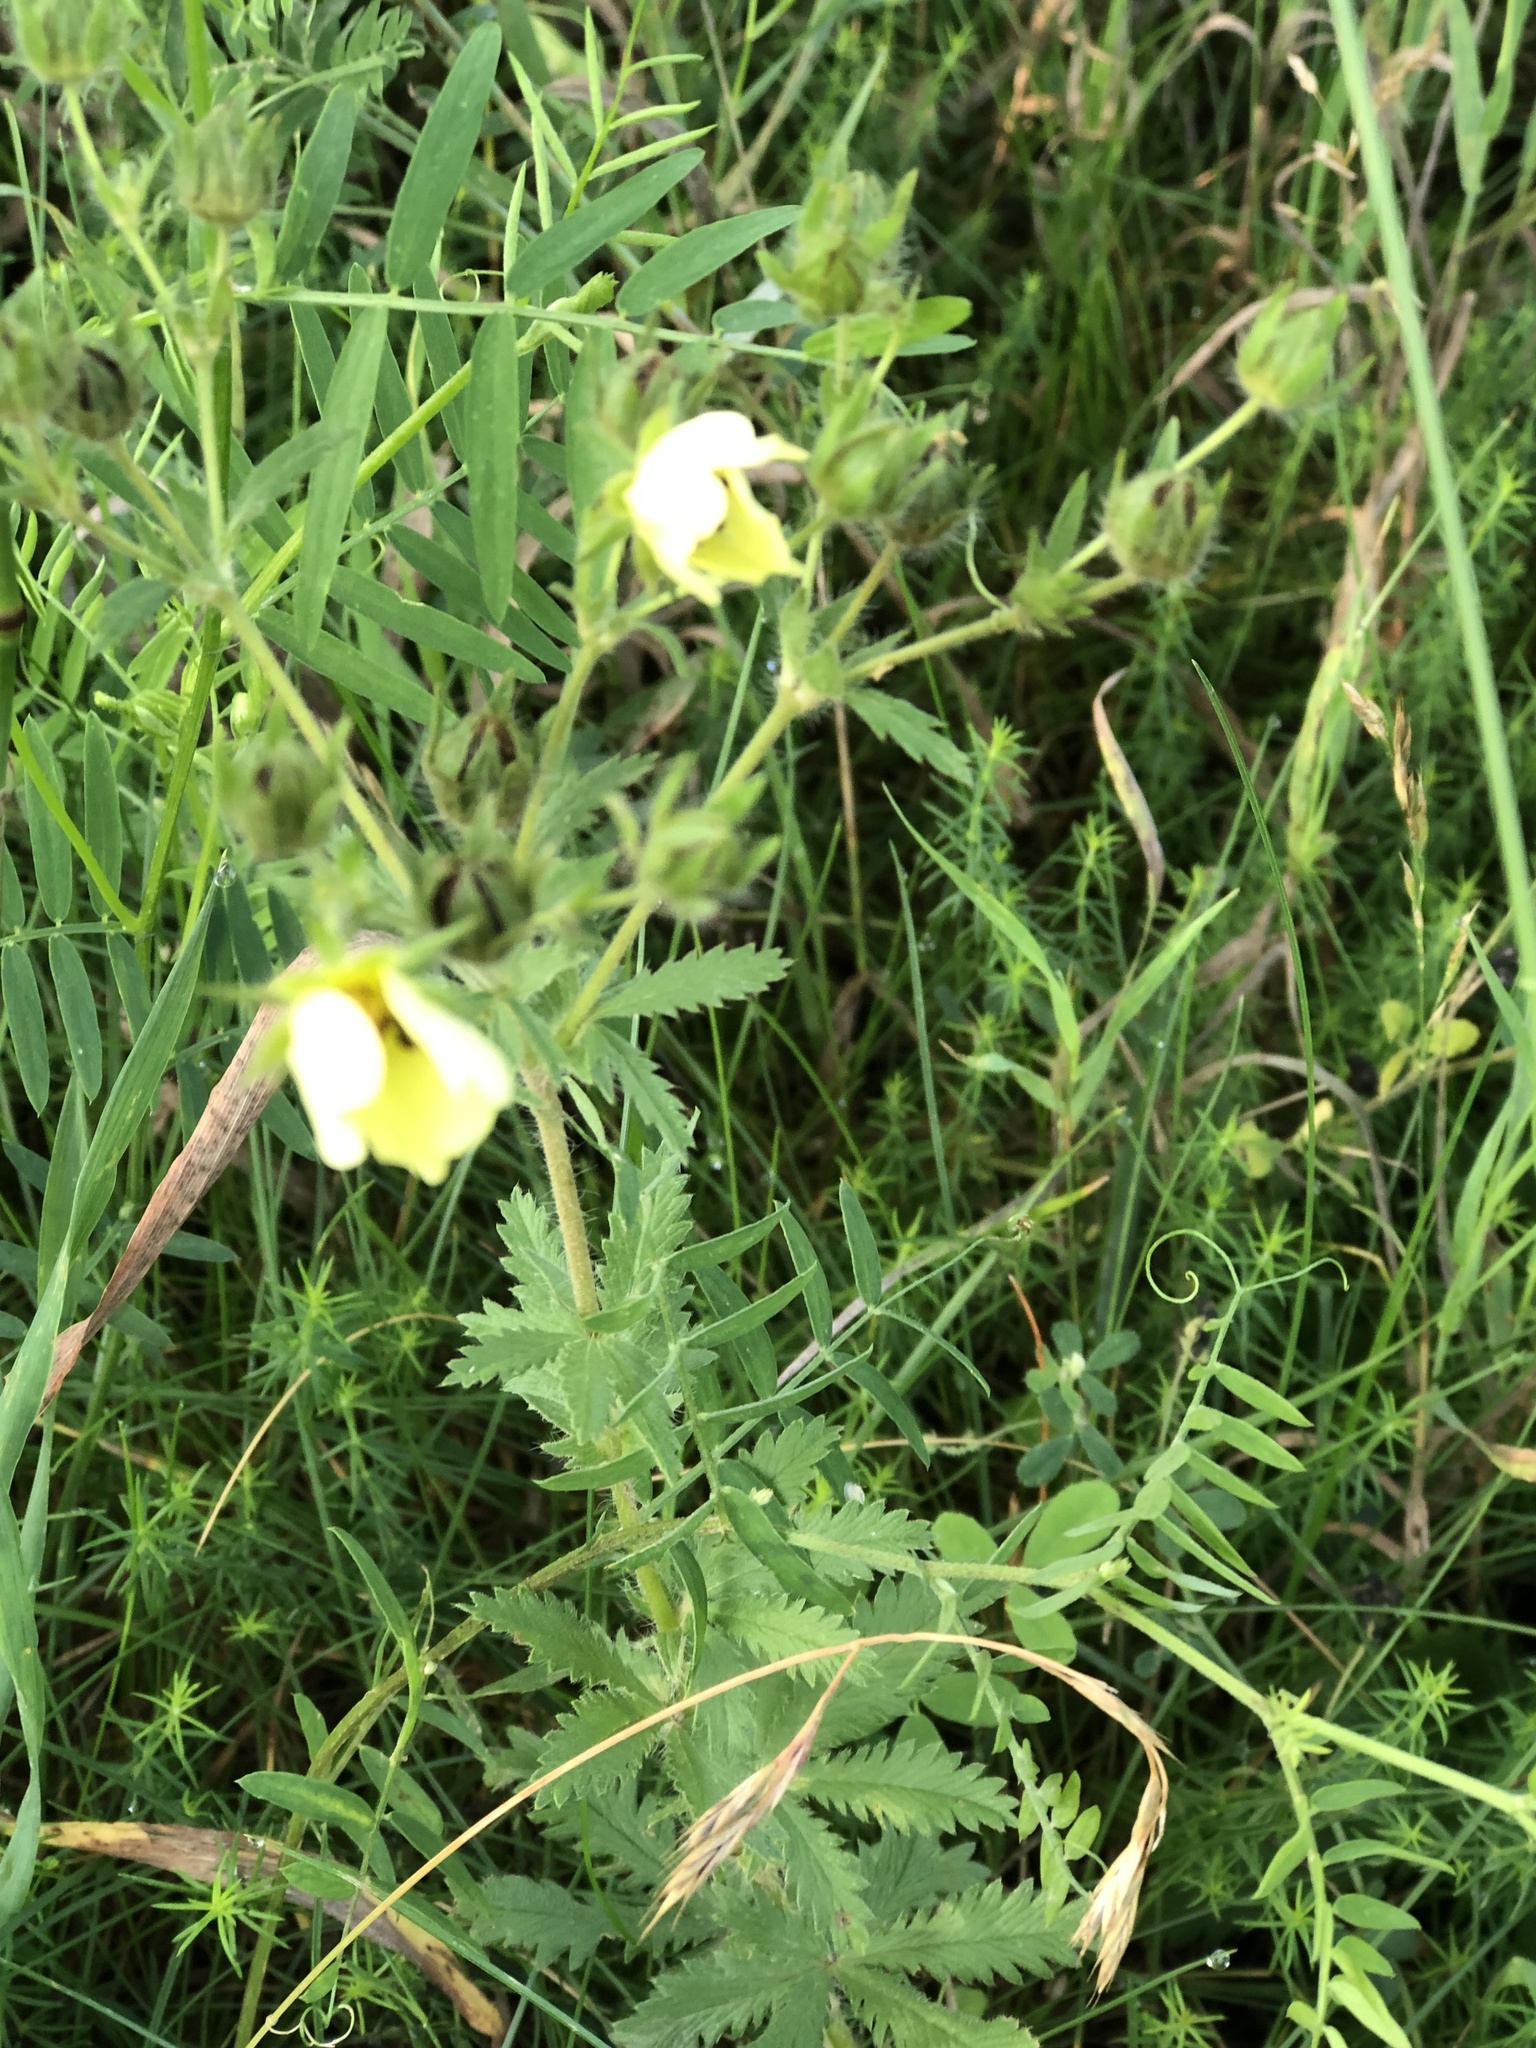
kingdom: Plantae
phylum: Tracheophyta
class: Magnoliopsida
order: Rosales
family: Rosaceae
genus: Potentilla
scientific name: Potentilla recta
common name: Sulphur cinquefoil
